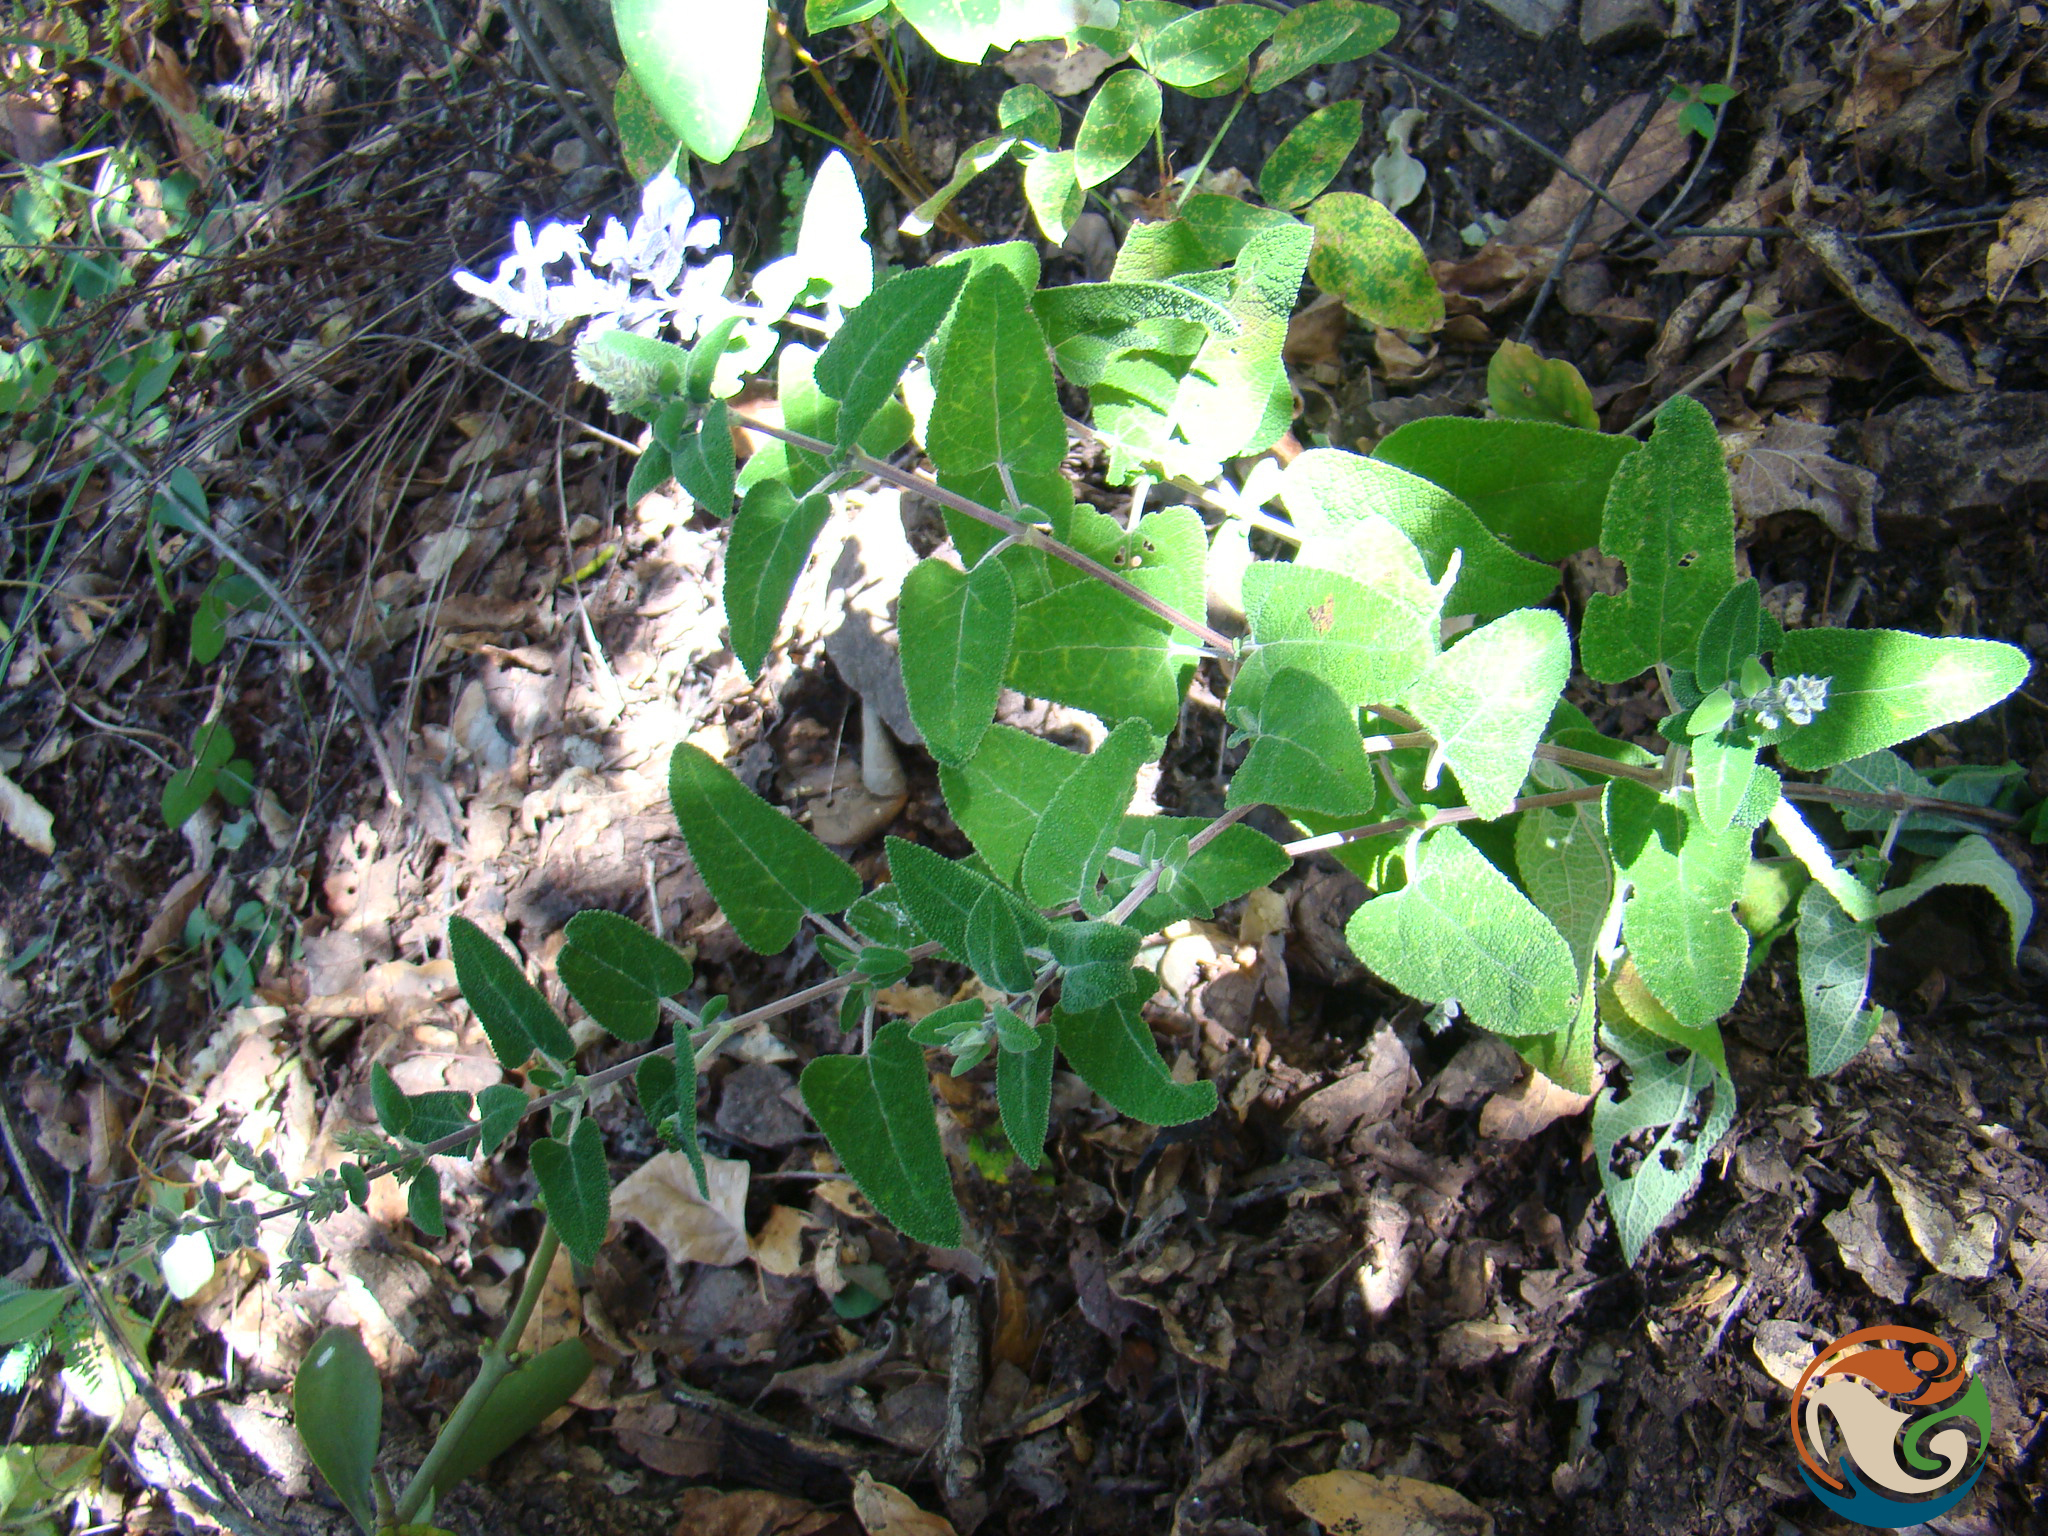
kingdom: Plantae
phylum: Tracheophyta
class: Magnoliopsida
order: Lamiales
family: Lamiaceae
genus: Salvia
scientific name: Salvia melissodora
